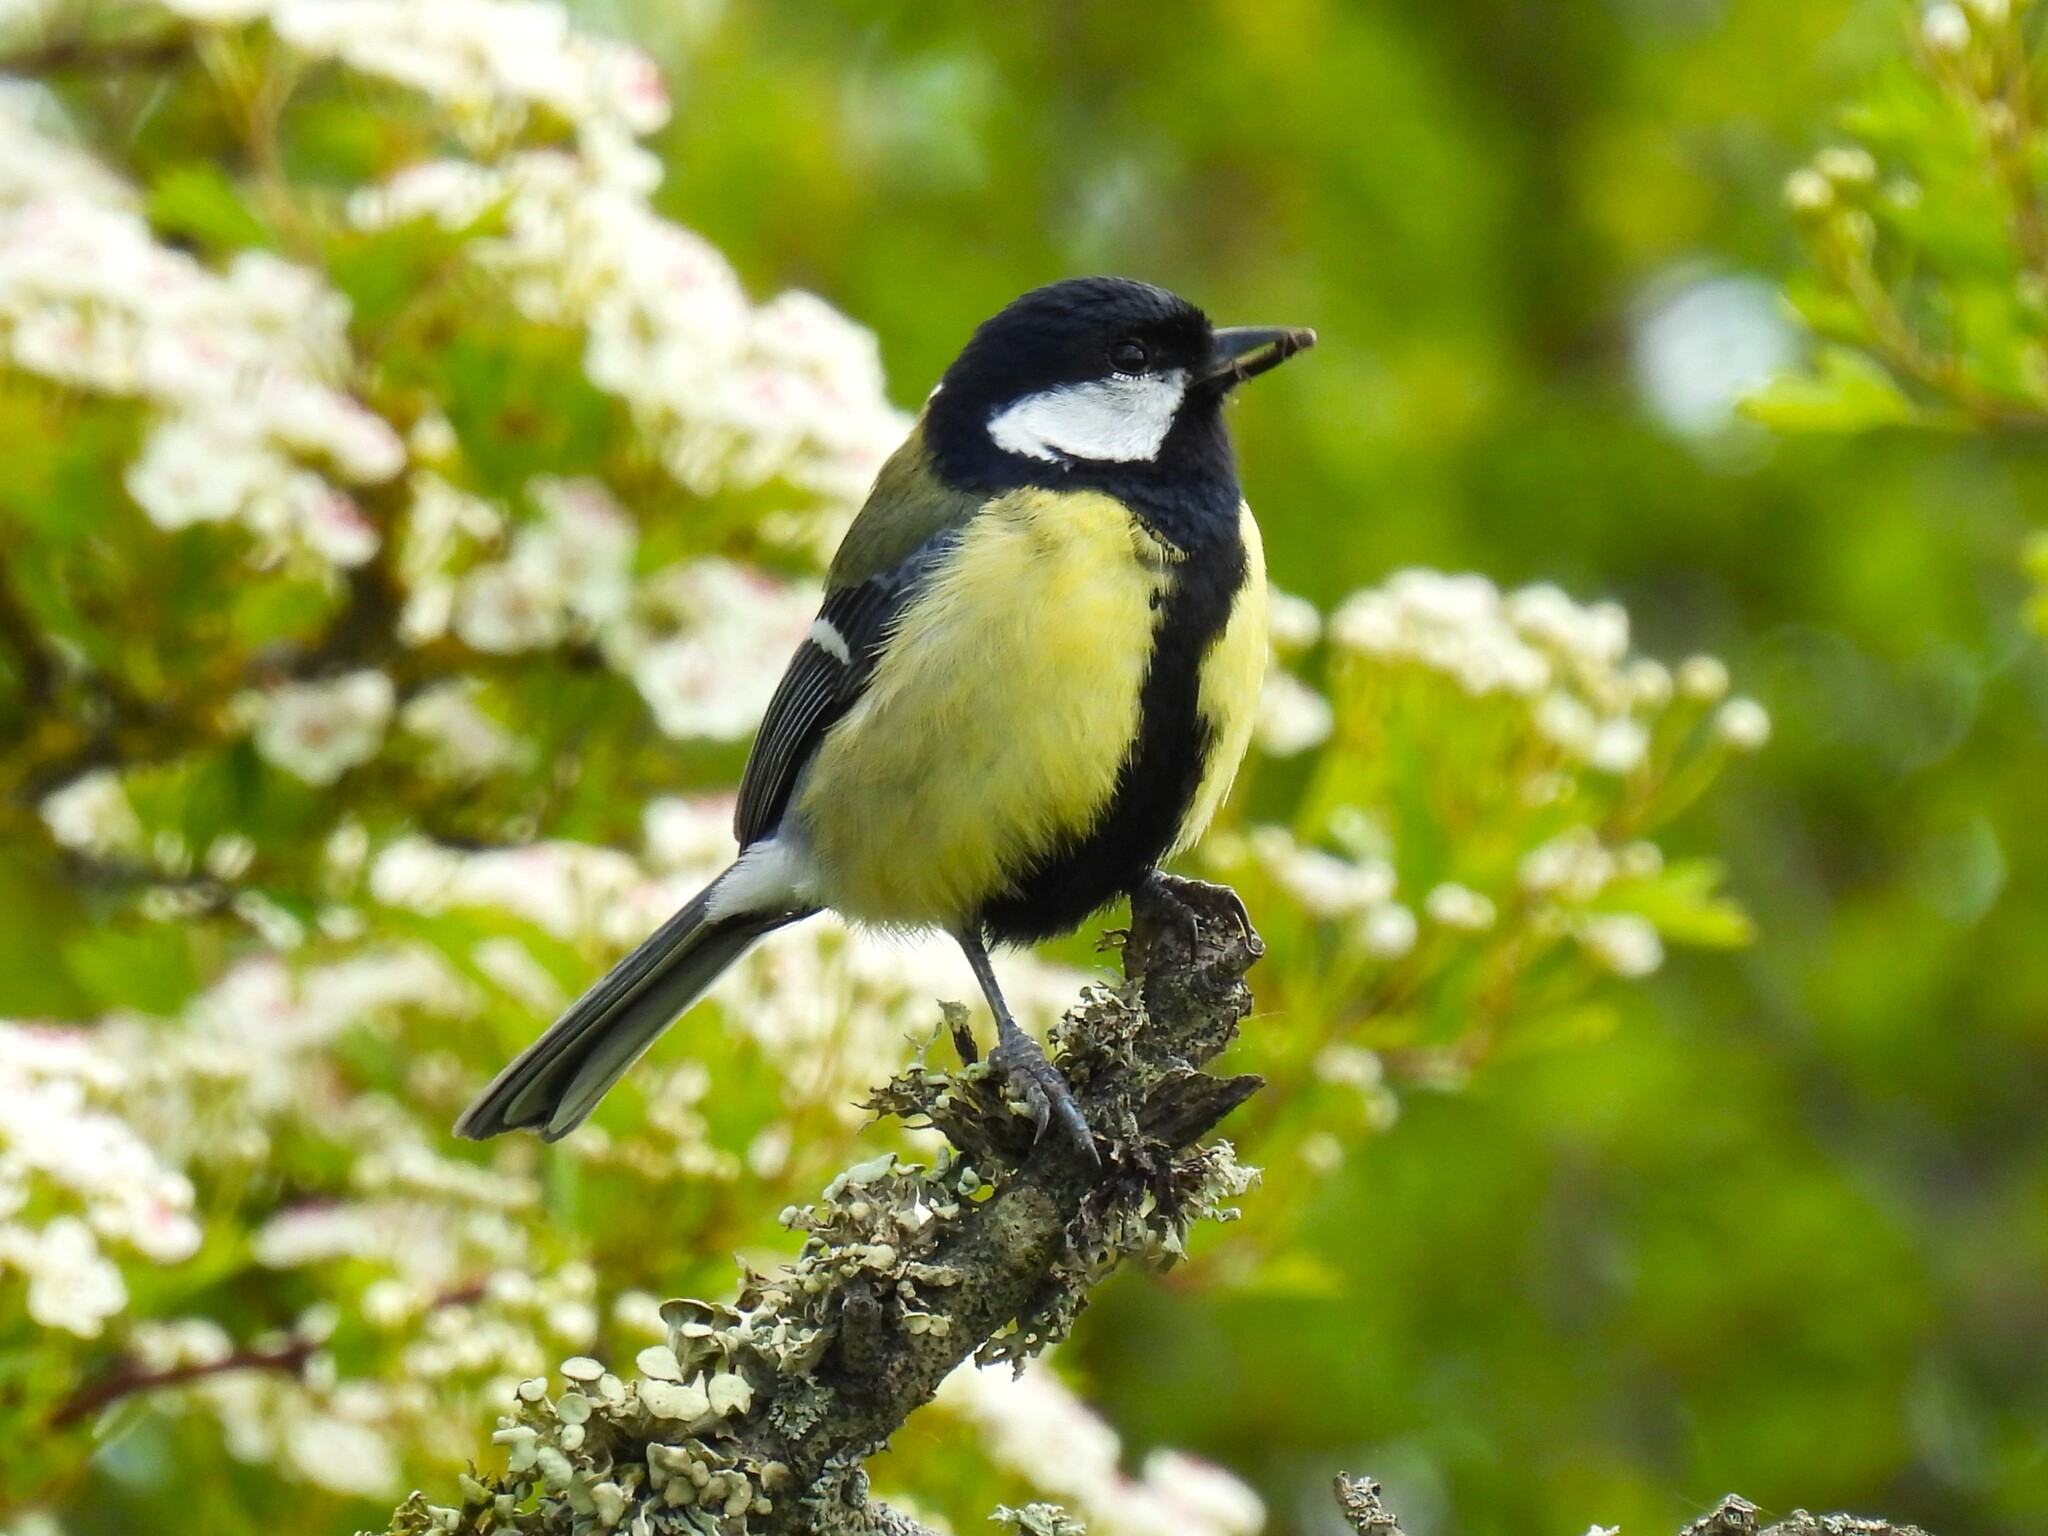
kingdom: Animalia
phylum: Chordata
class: Aves
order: Passeriformes
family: Paridae
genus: Parus
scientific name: Parus major
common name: Great tit
